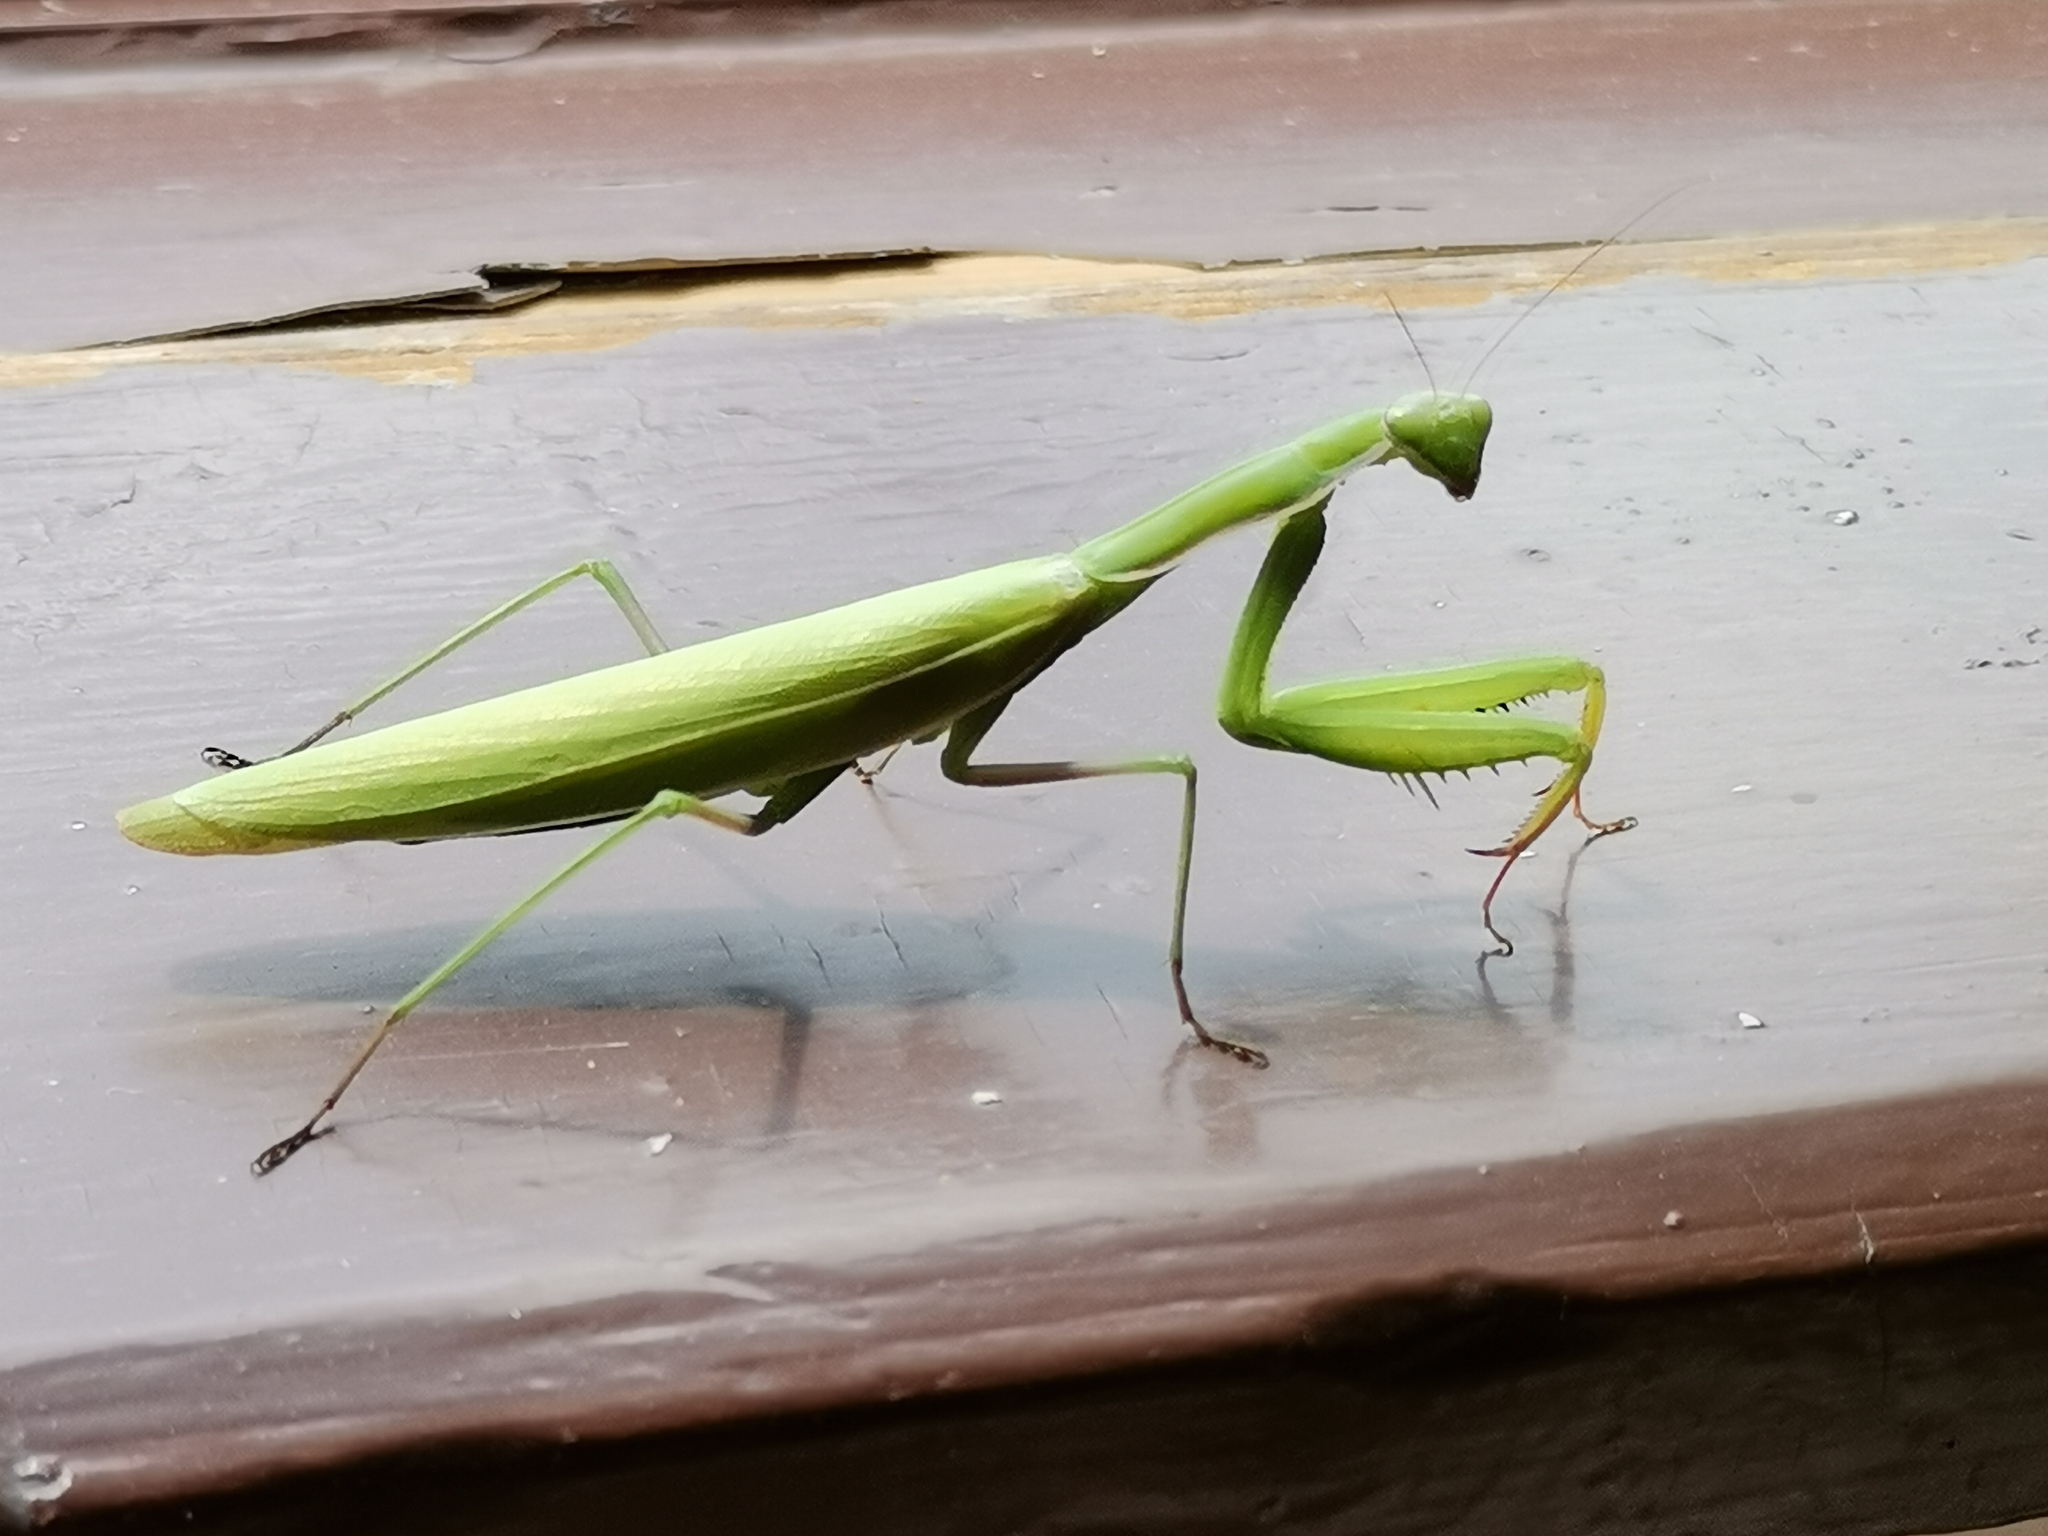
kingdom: Animalia
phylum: Arthropoda
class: Insecta
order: Mantodea
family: Mantidae
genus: Mantis
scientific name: Mantis religiosa
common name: Praying mantis
